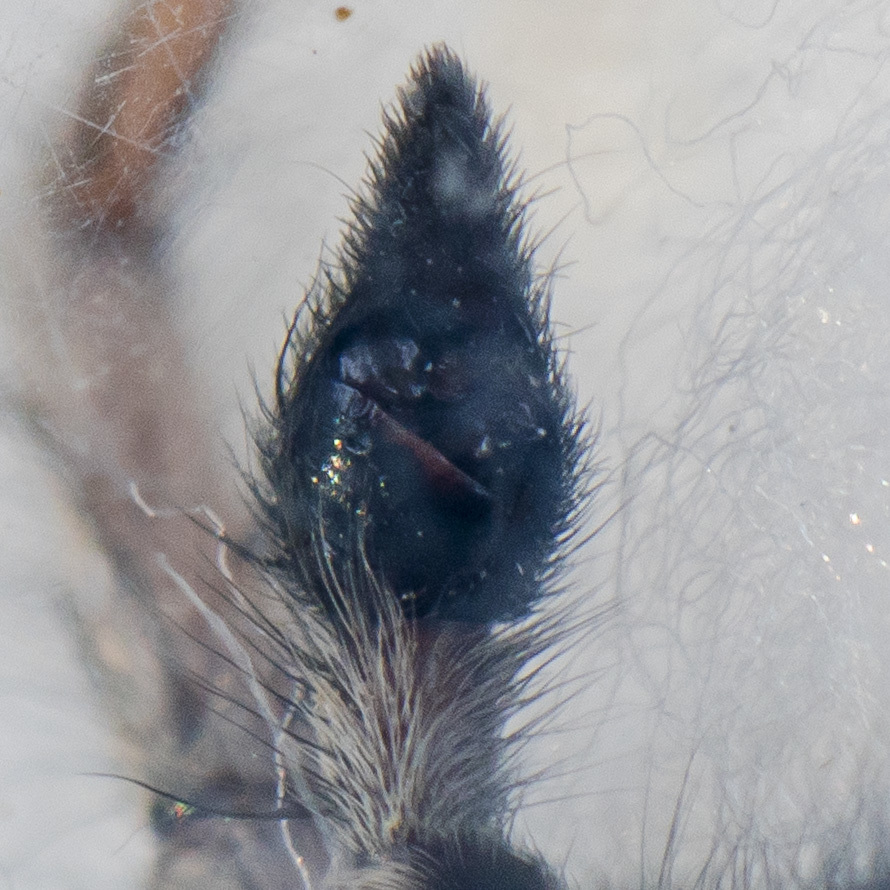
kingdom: Animalia
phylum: Arthropoda
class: Arachnida
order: Araneae
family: Lycosidae
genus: Alopecosa
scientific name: Alopecosa fedotovi
